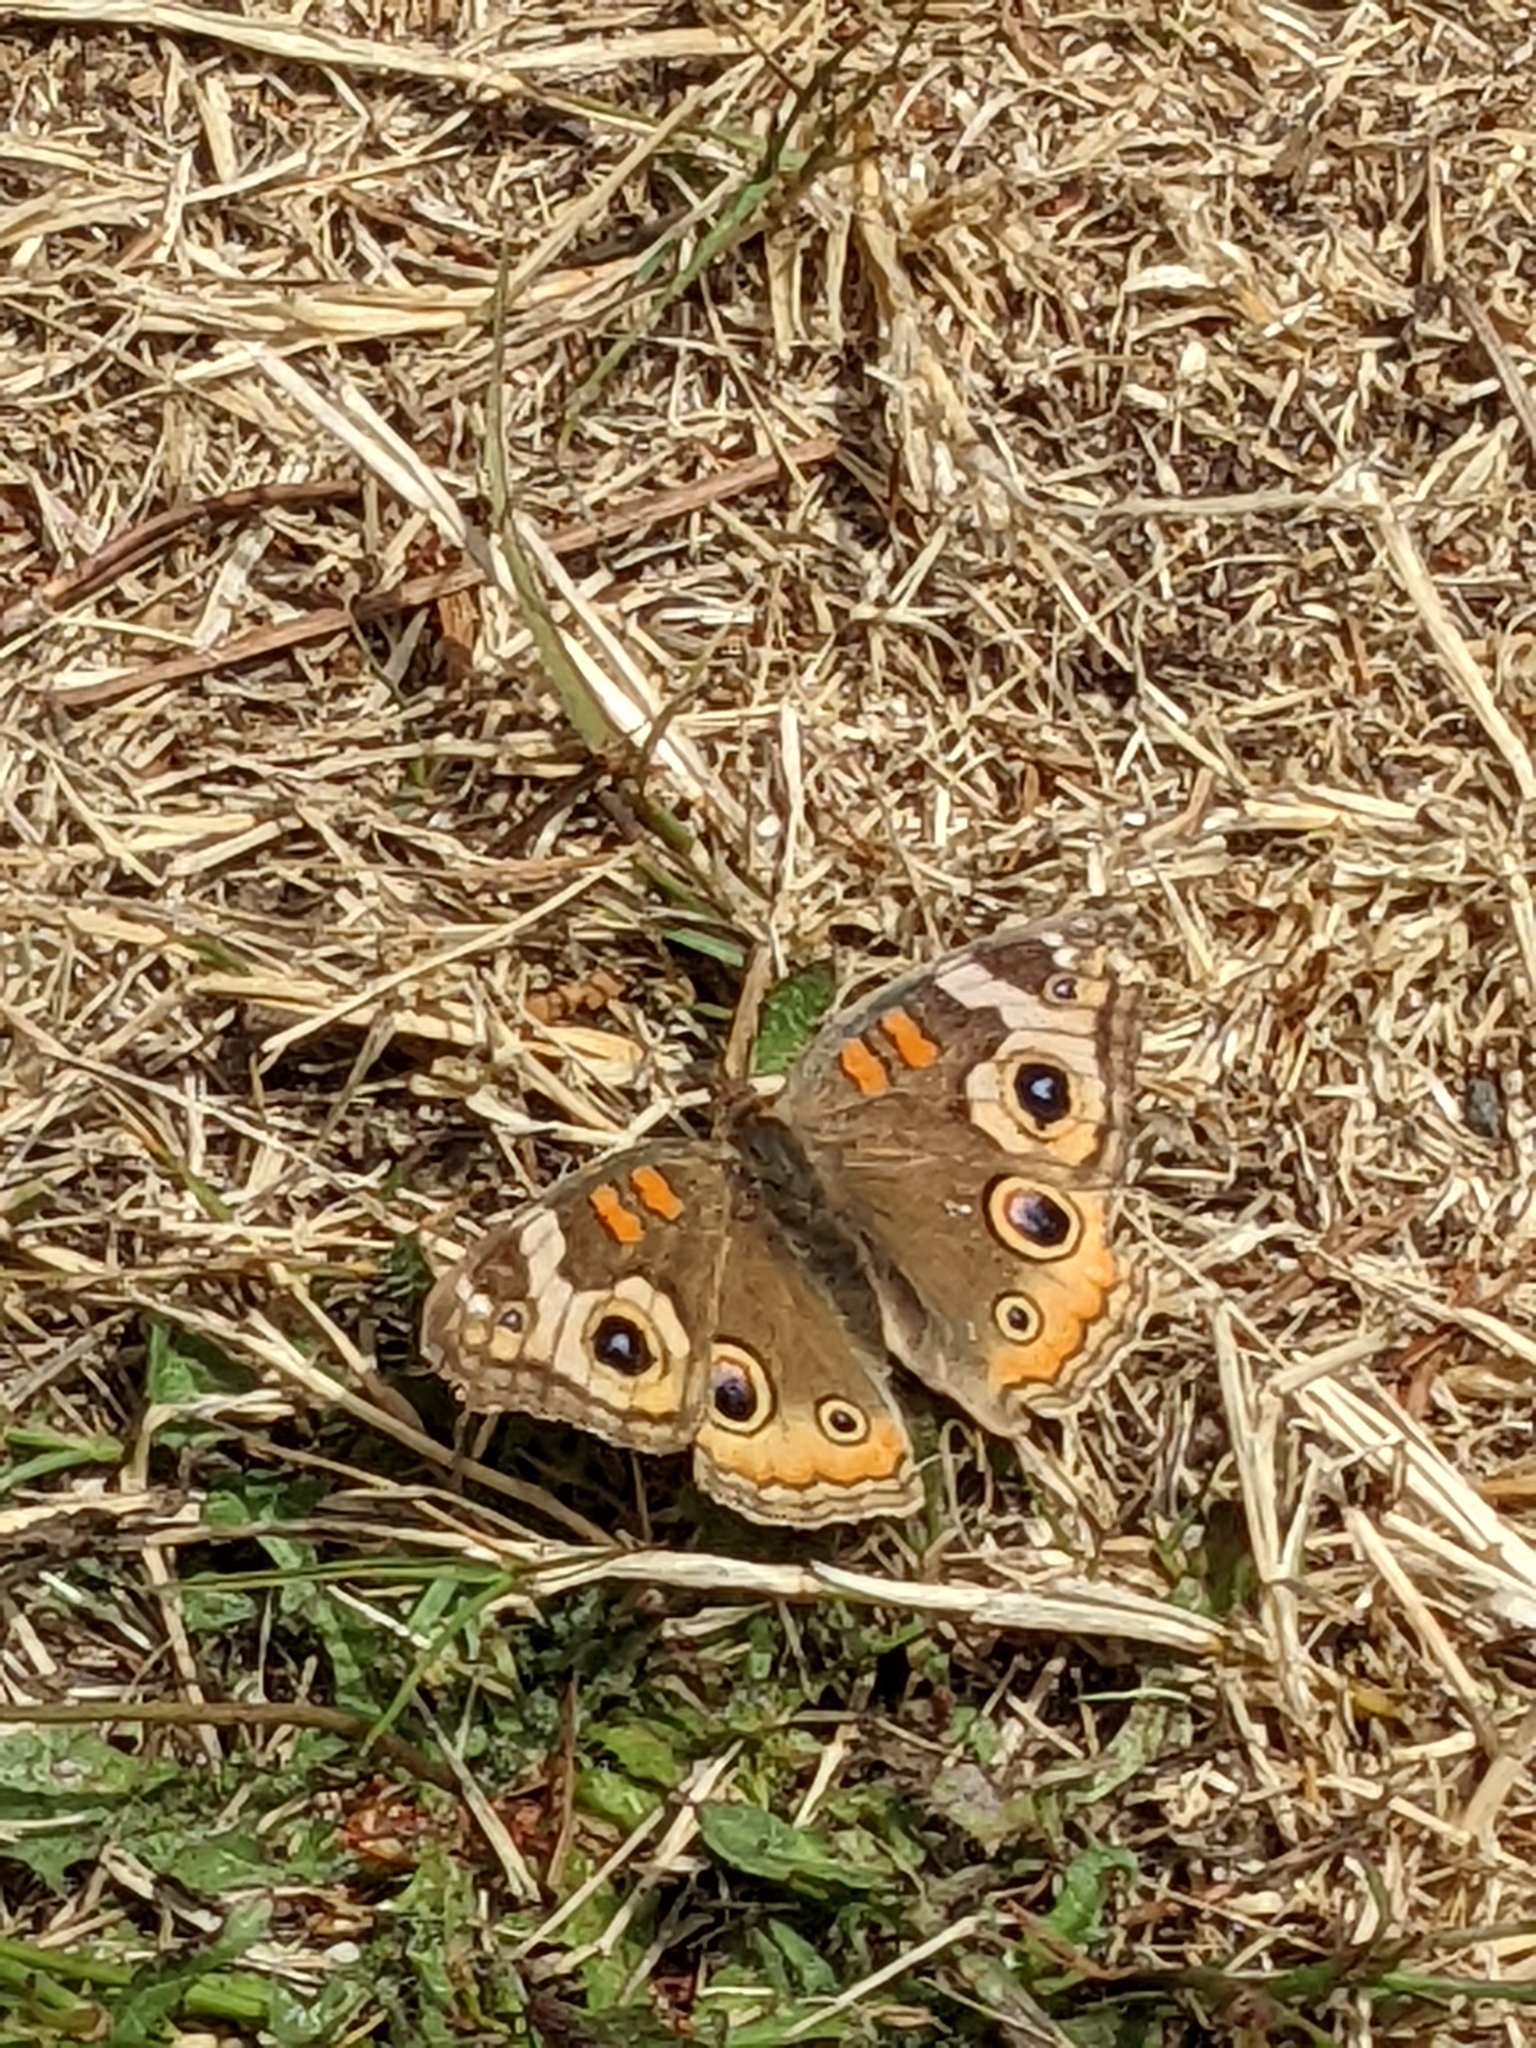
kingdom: Animalia
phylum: Arthropoda
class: Insecta
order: Lepidoptera
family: Nymphalidae
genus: Junonia
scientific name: Junonia grisea
